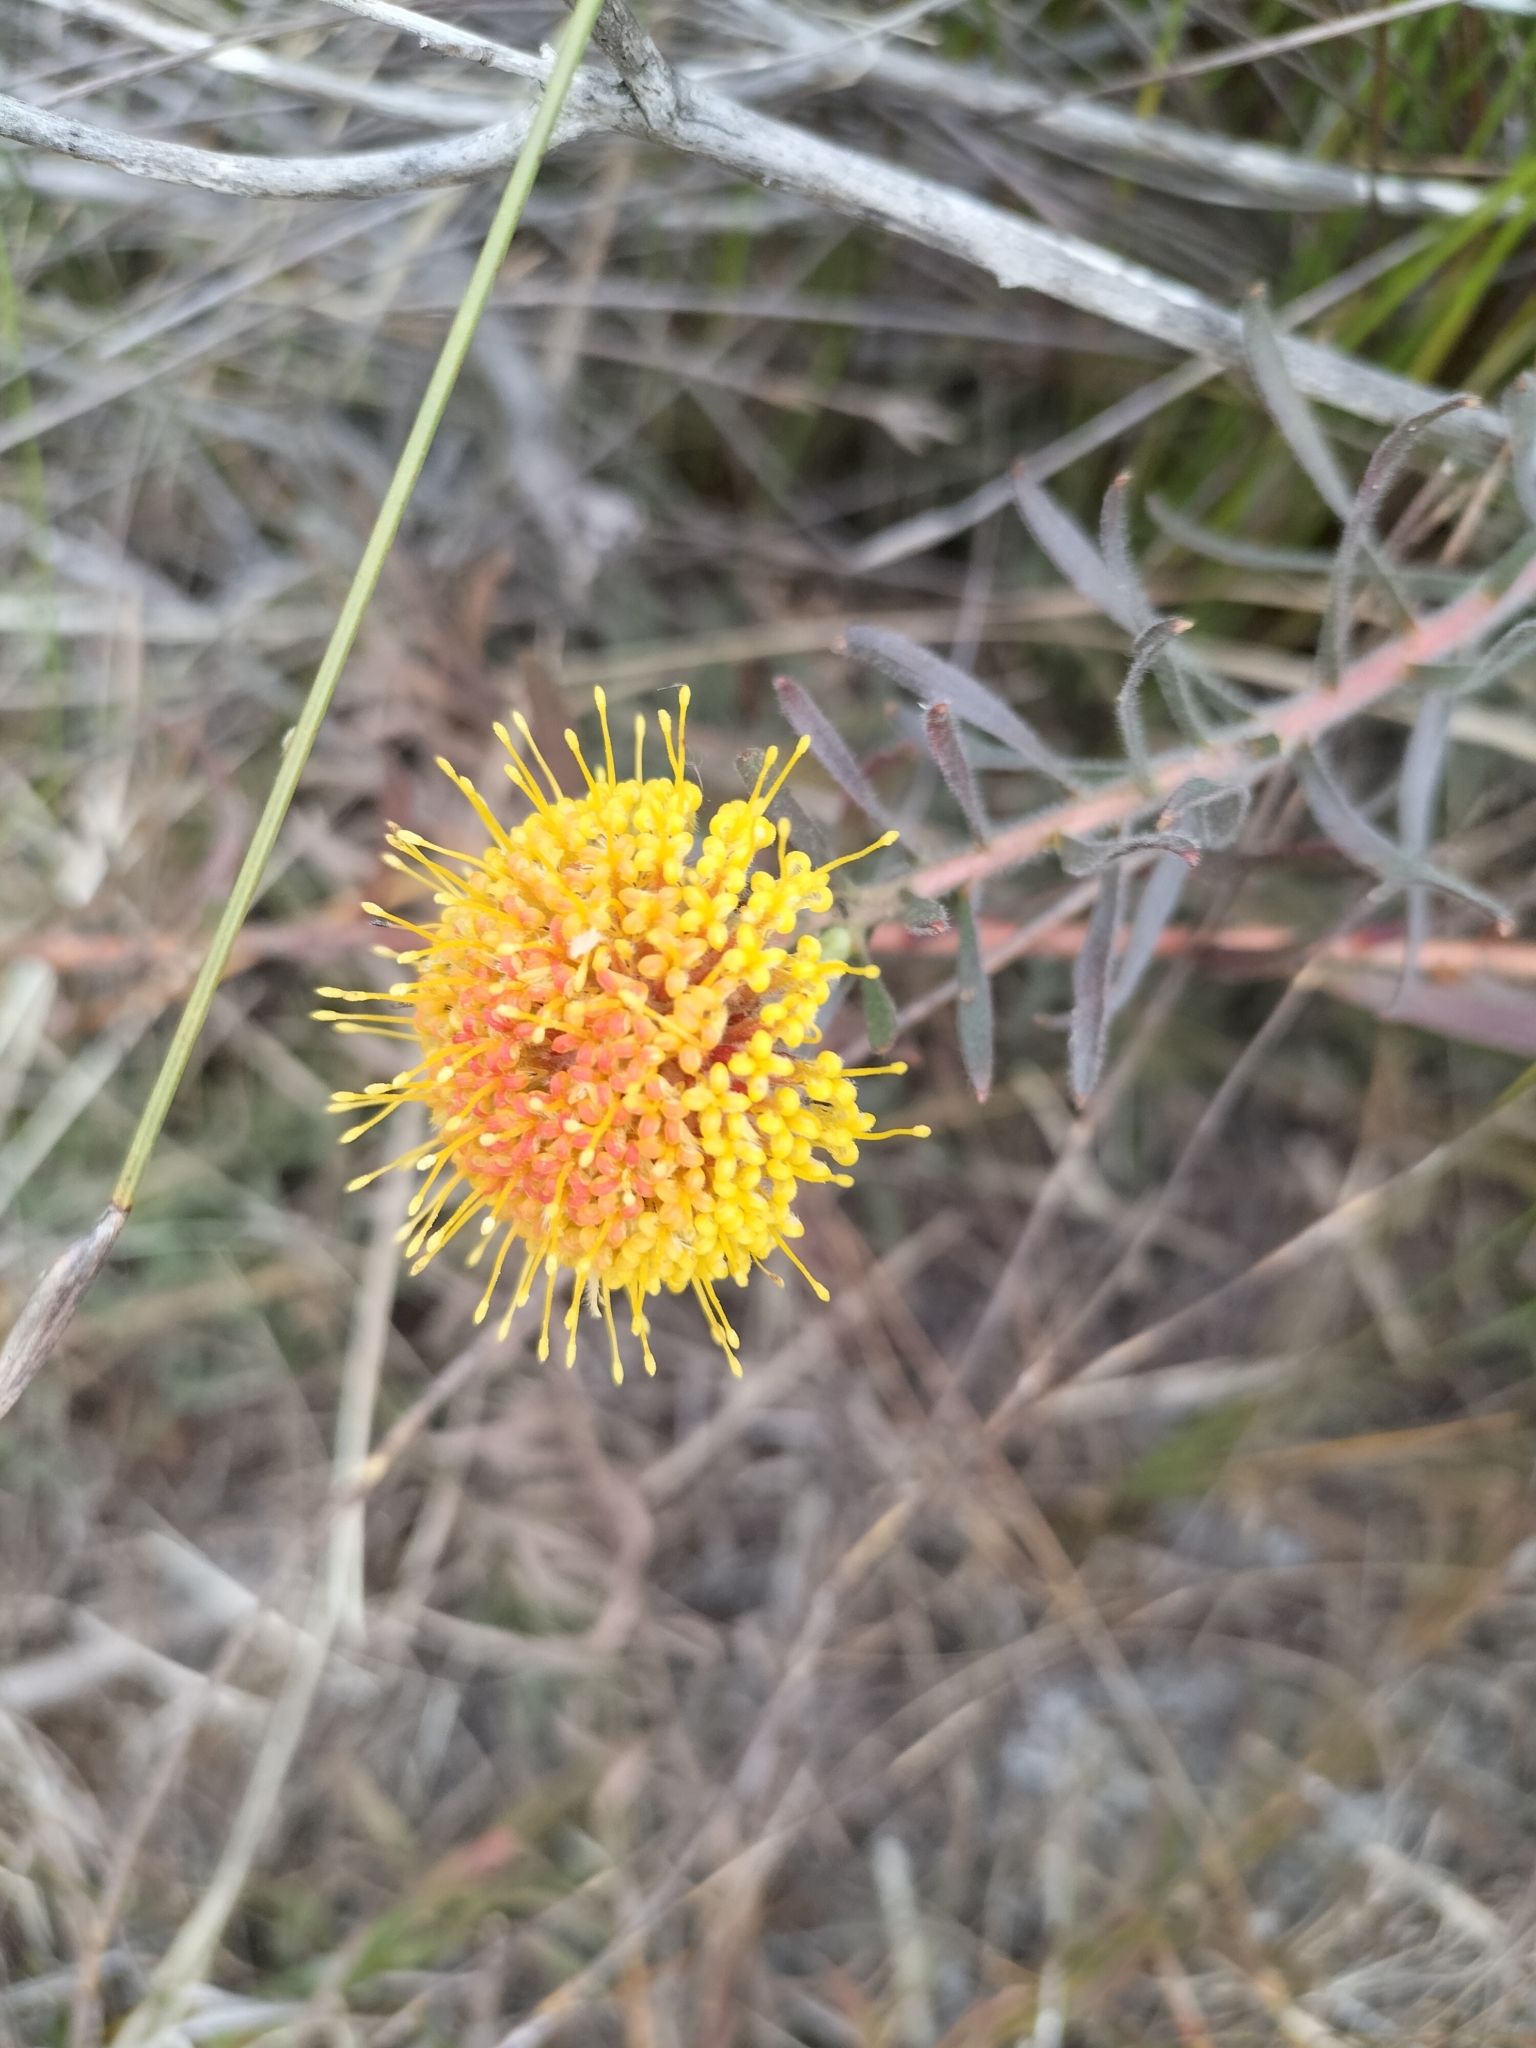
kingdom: Plantae
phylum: Tracheophyta
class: Magnoliopsida
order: Proteales
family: Proteaceae
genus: Leucospermum
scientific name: Leucospermum prostratum
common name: Yellow-trailing pincushion
